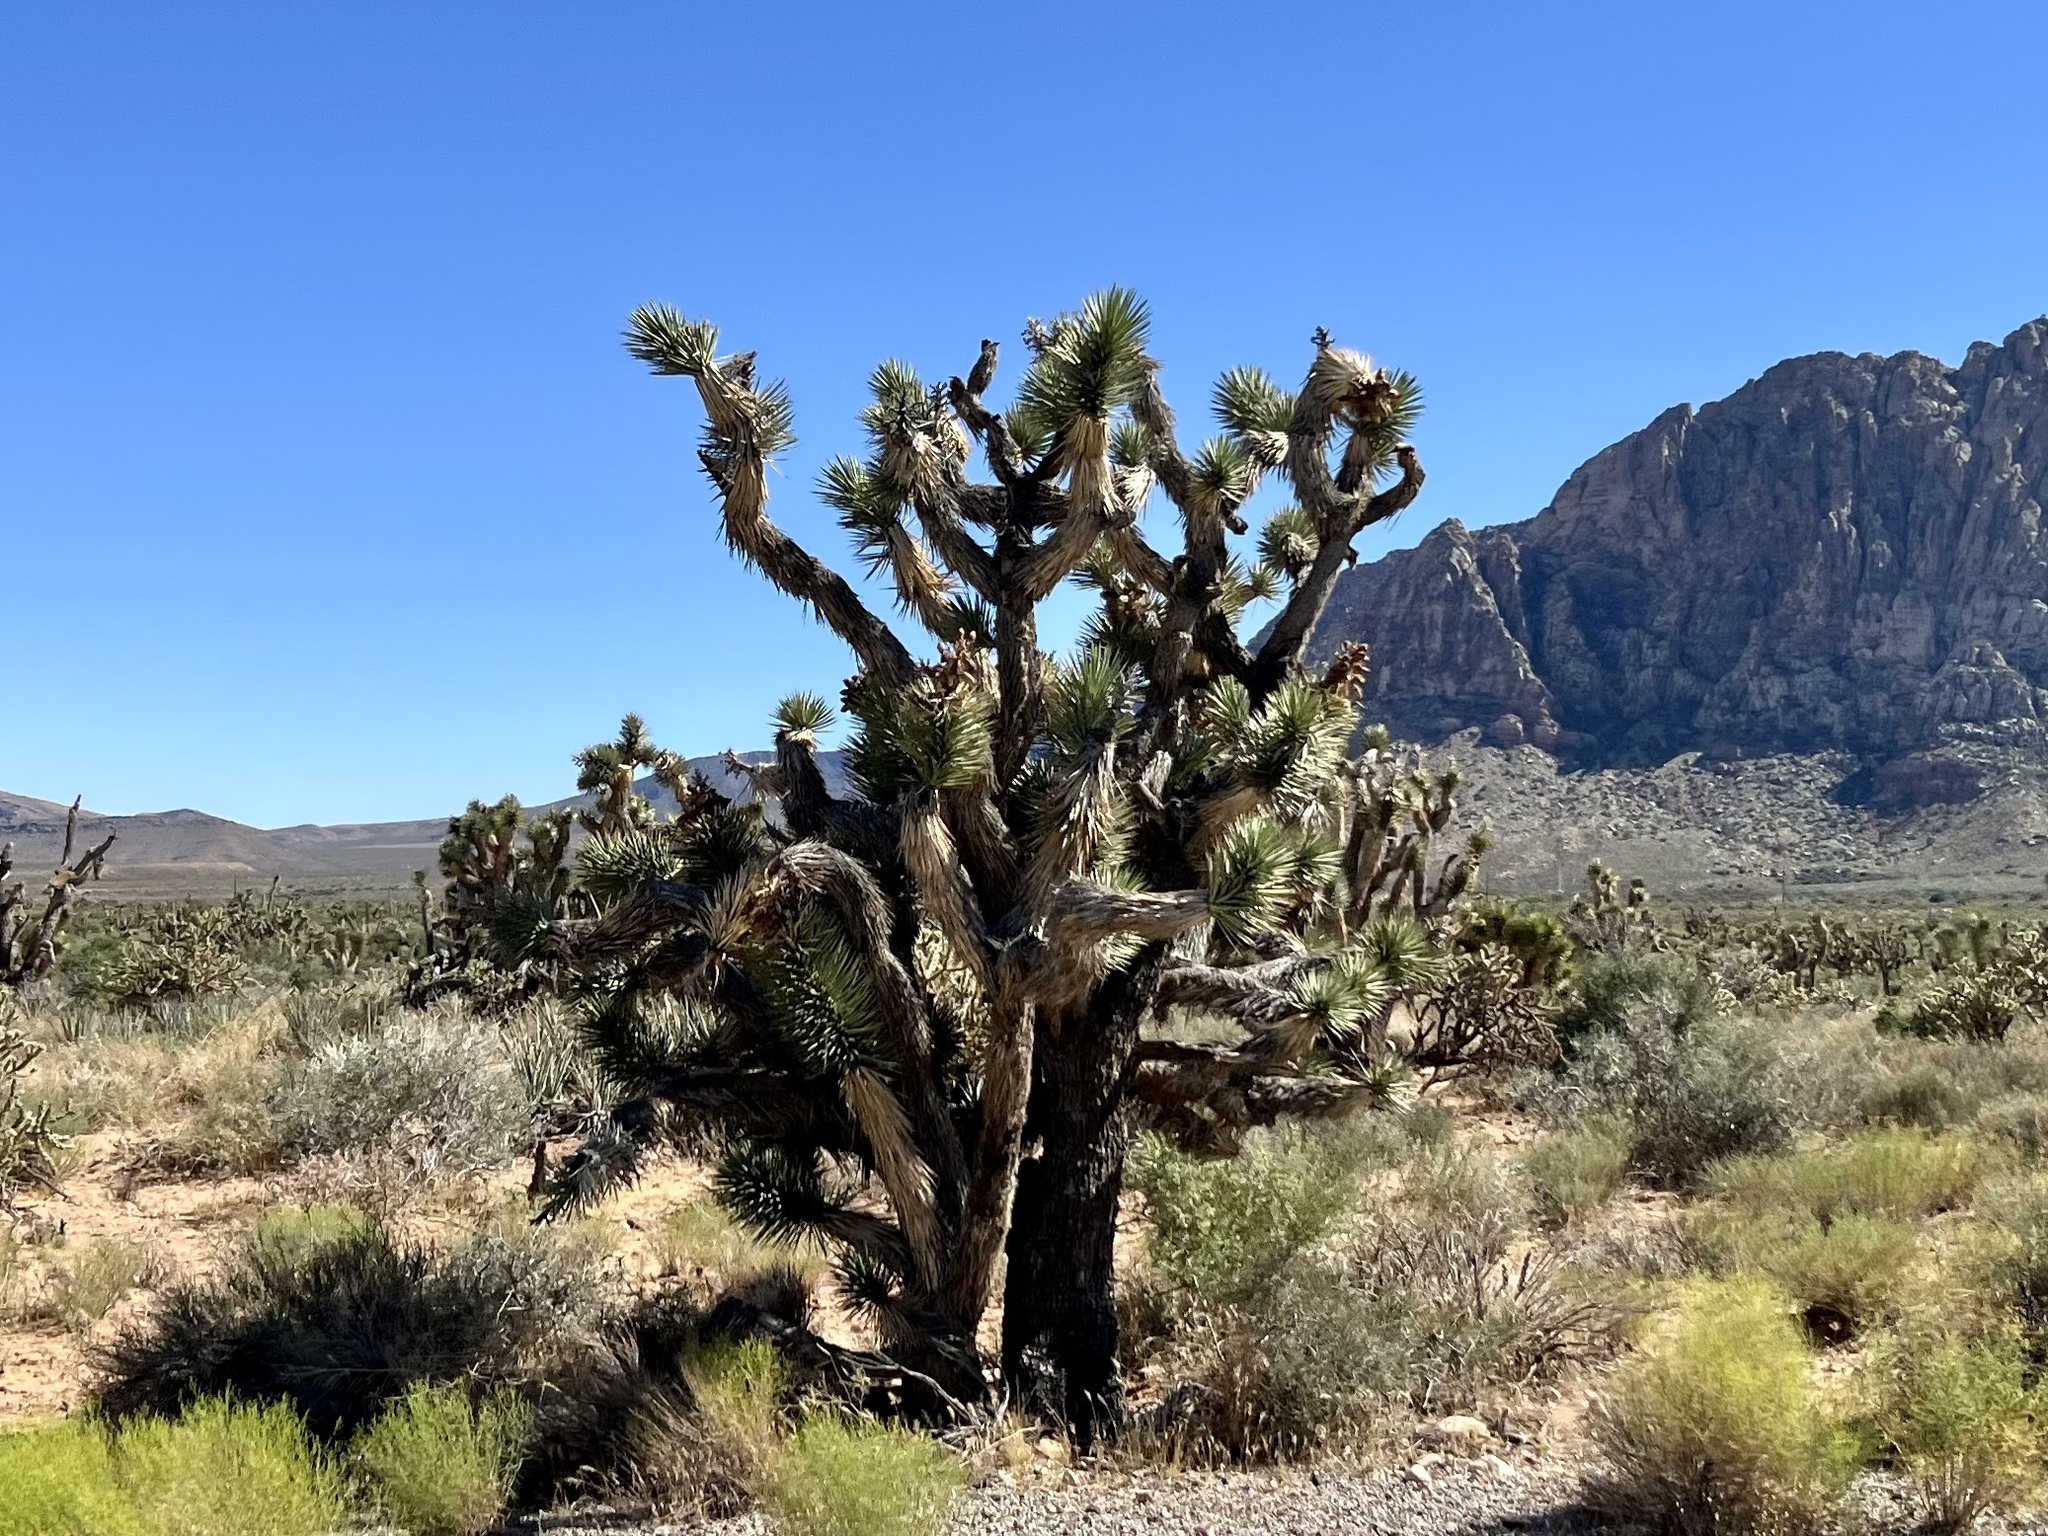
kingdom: Plantae
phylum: Tracheophyta
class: Liliopsida
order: Asparagales
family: Asparagaceae
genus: Yucca
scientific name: Yucca brevifolia
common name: Joshua tree
